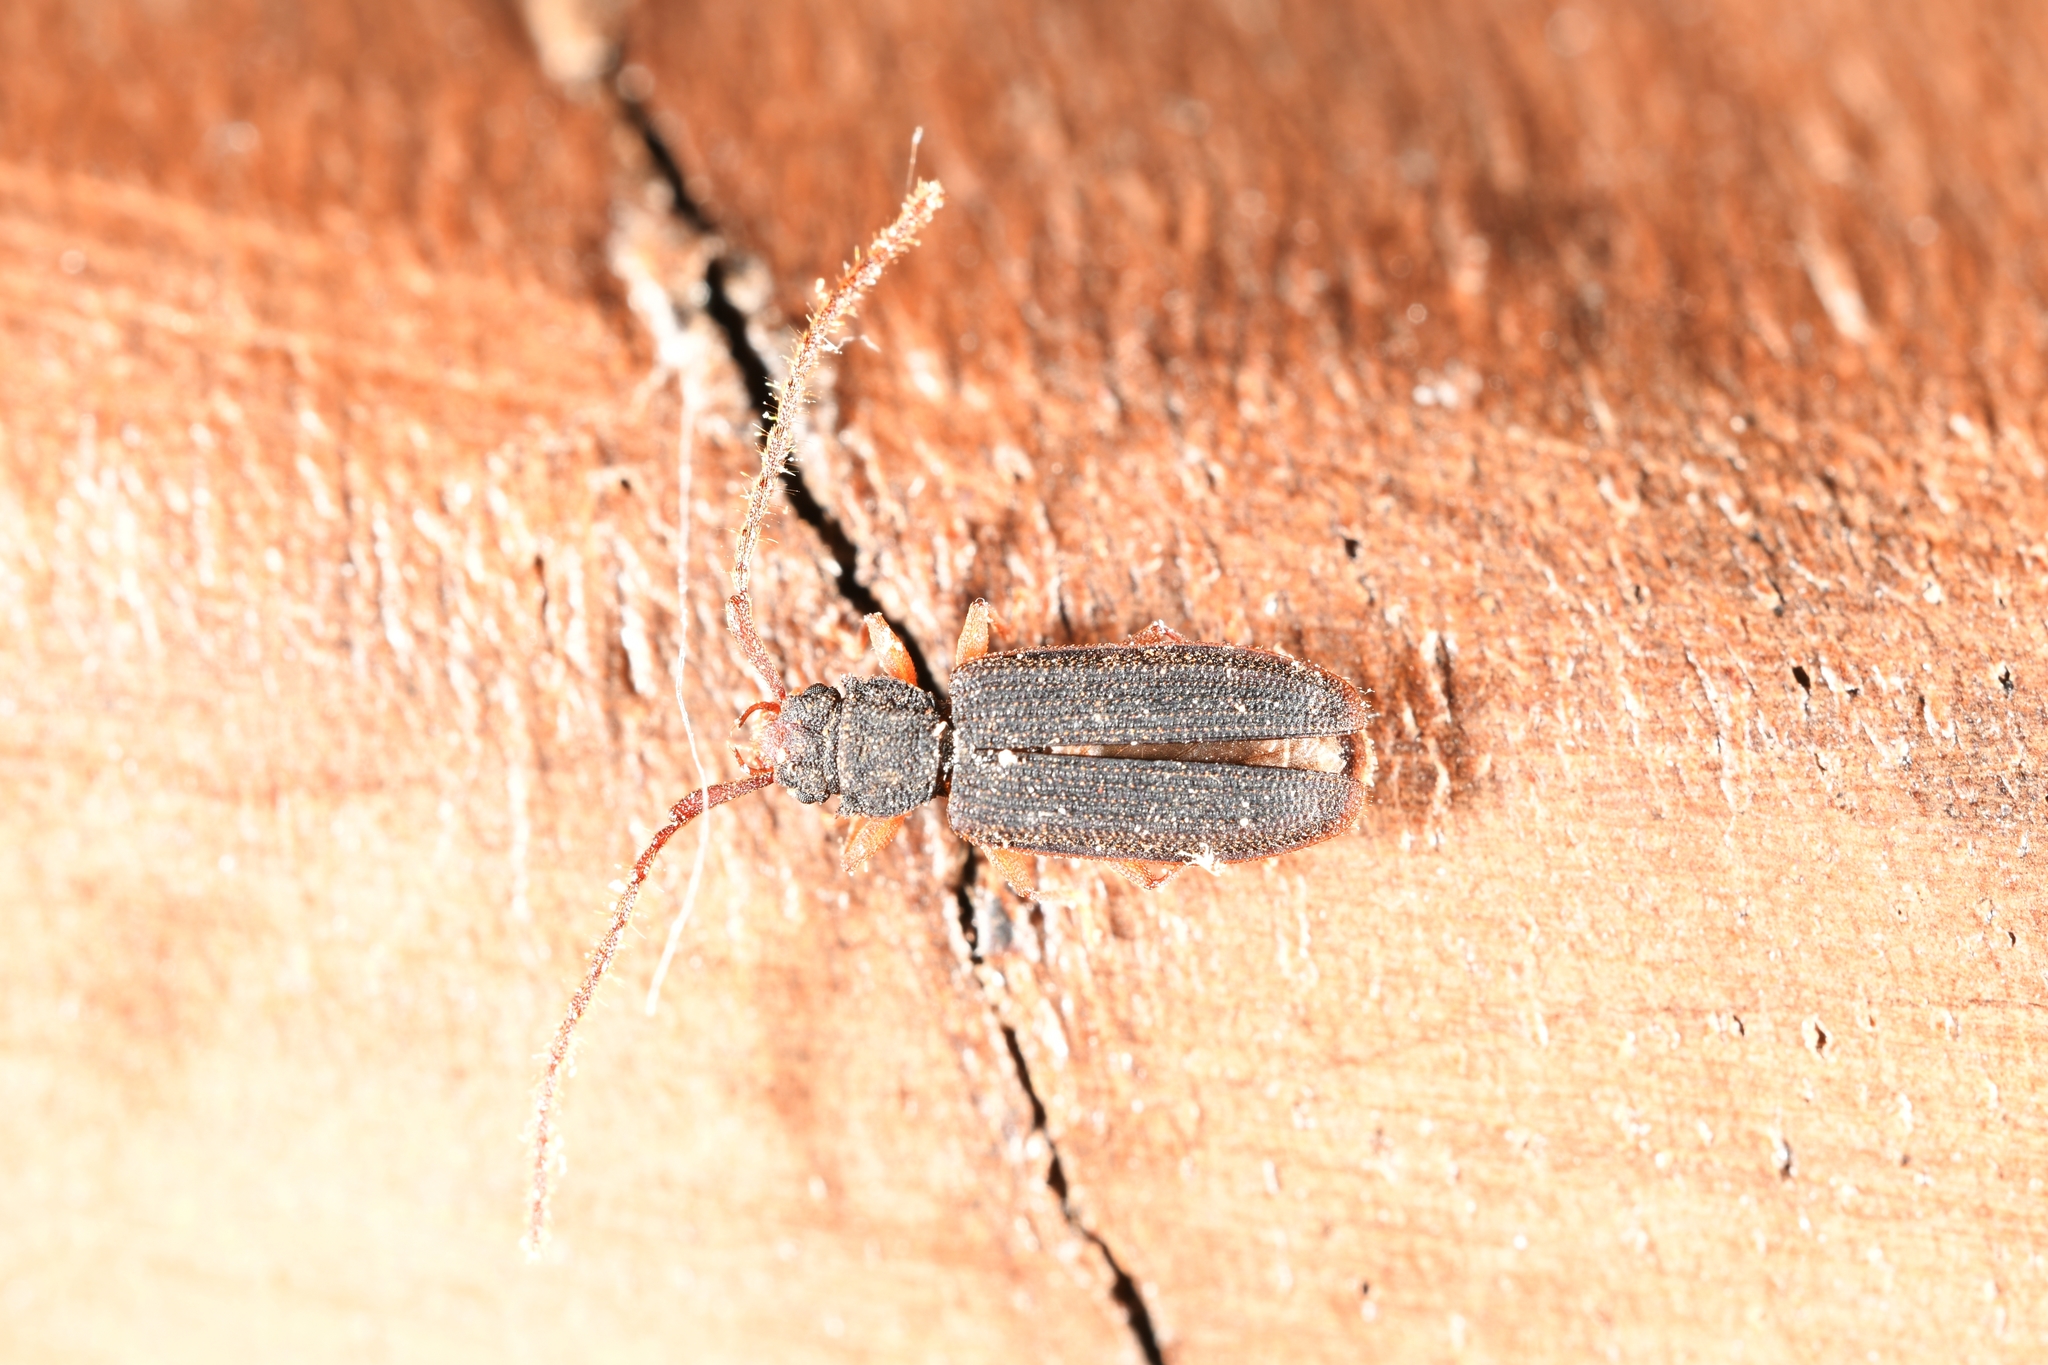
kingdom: Animalia
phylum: Arthropoda
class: Insecta
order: Coleoptera
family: Silvanidae
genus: Uleiota
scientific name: Uleiota planatus
